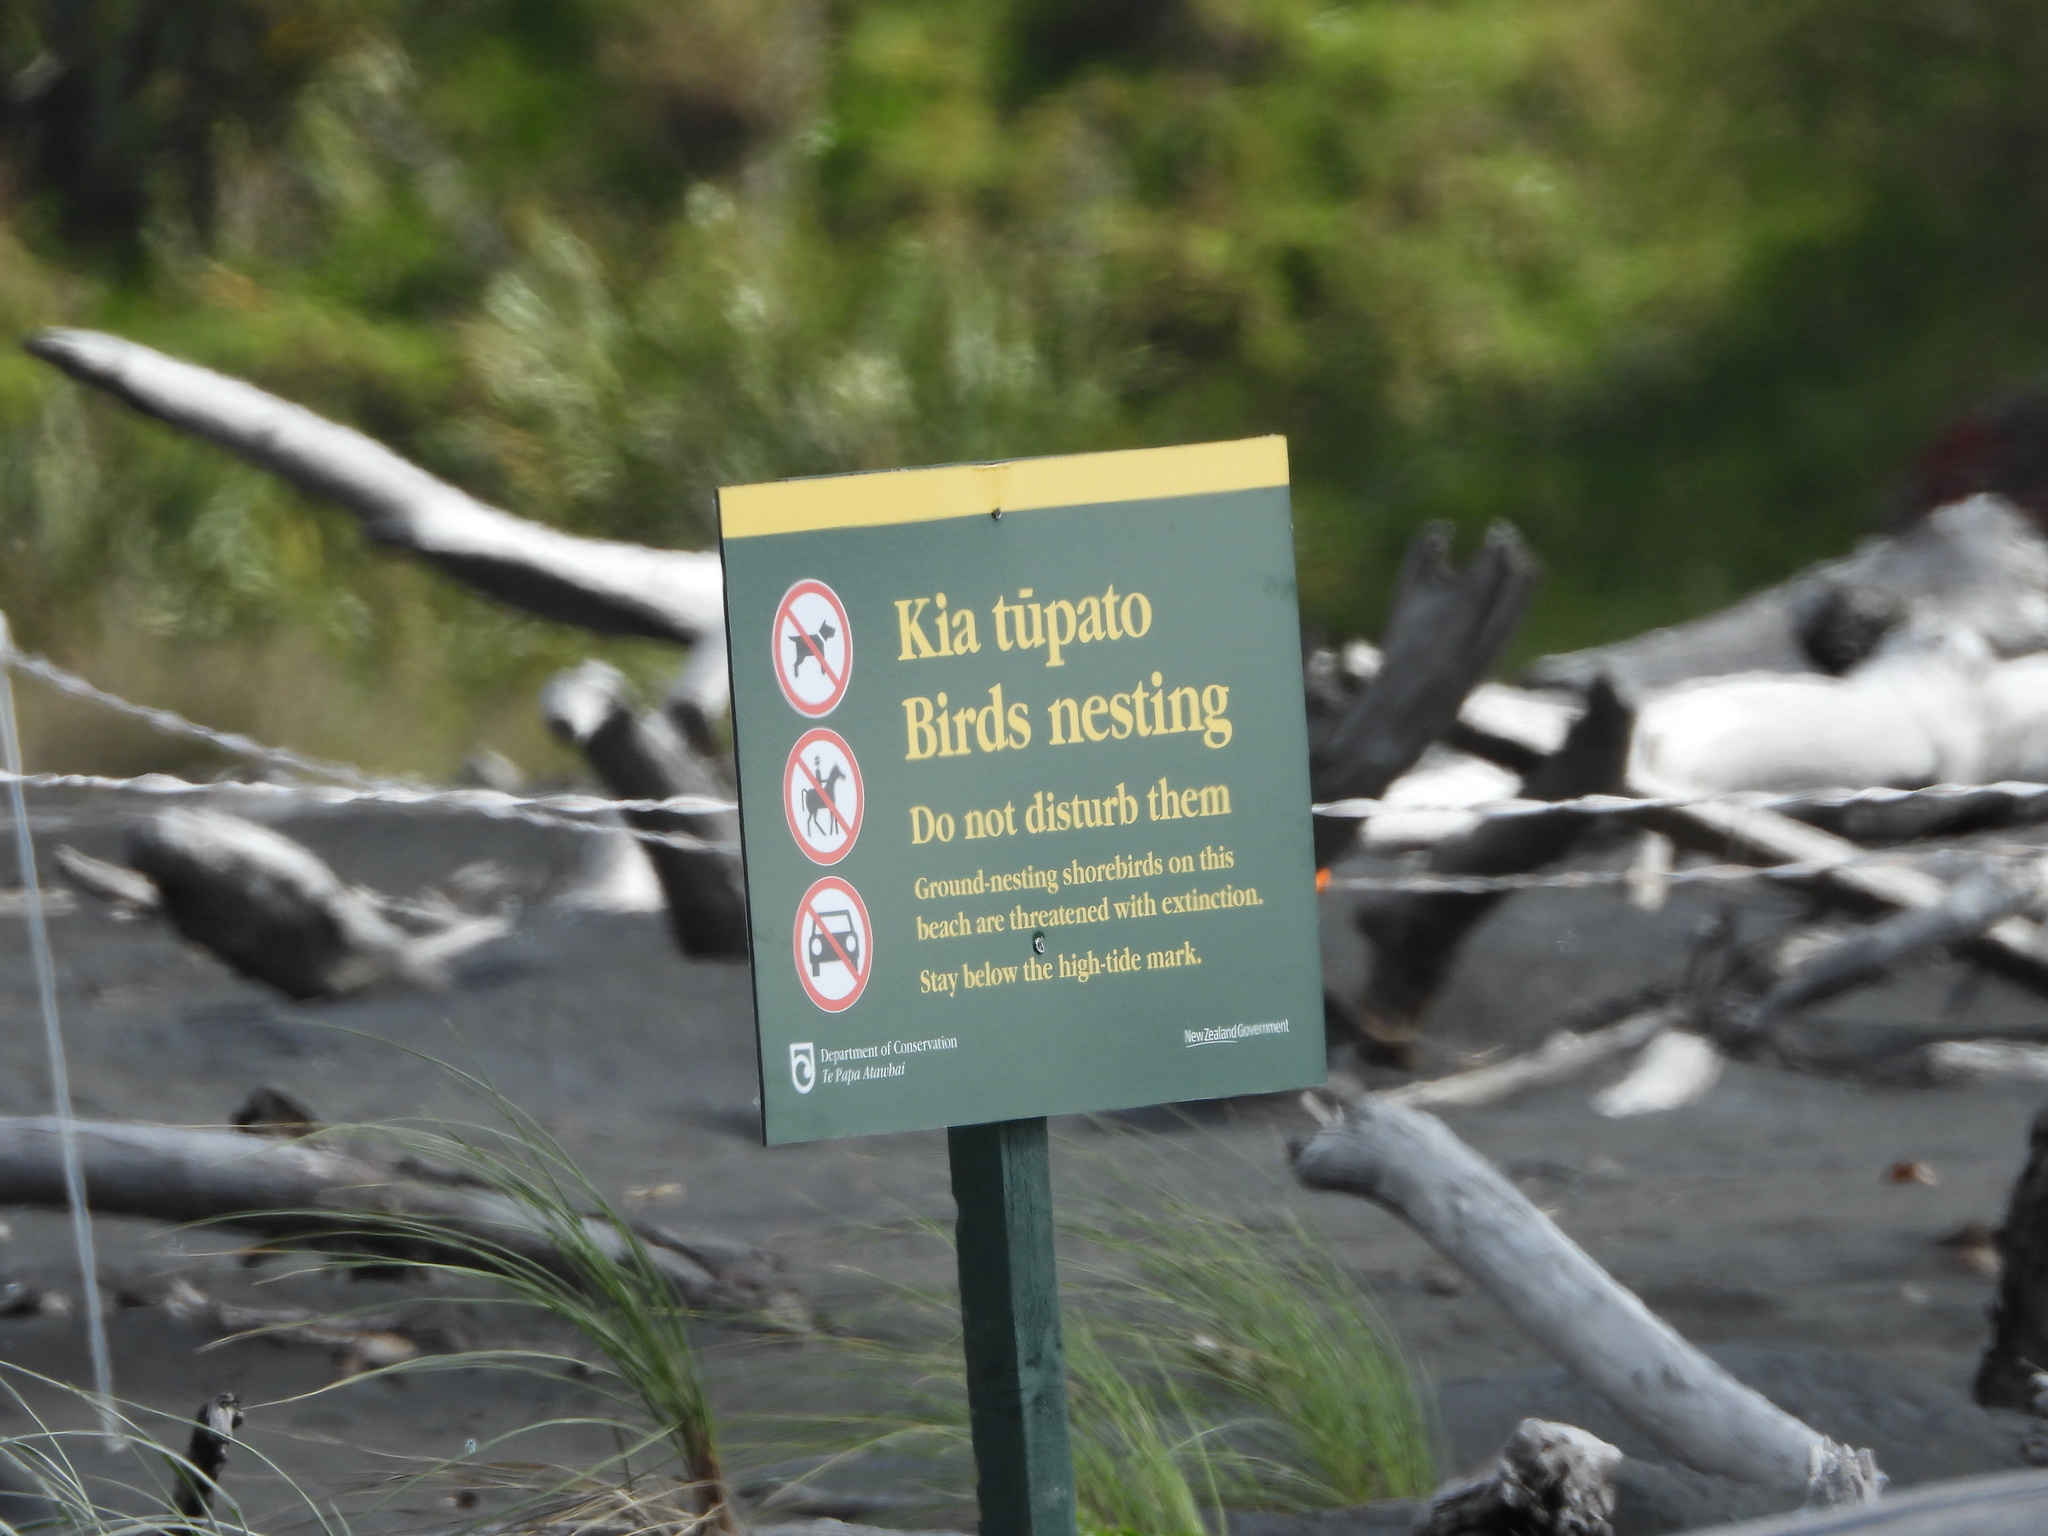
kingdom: Animalia
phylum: Chordata
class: Aves
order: Charadriiformes
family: Charadriidae
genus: Anarhynchus
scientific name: Anarhynchus
